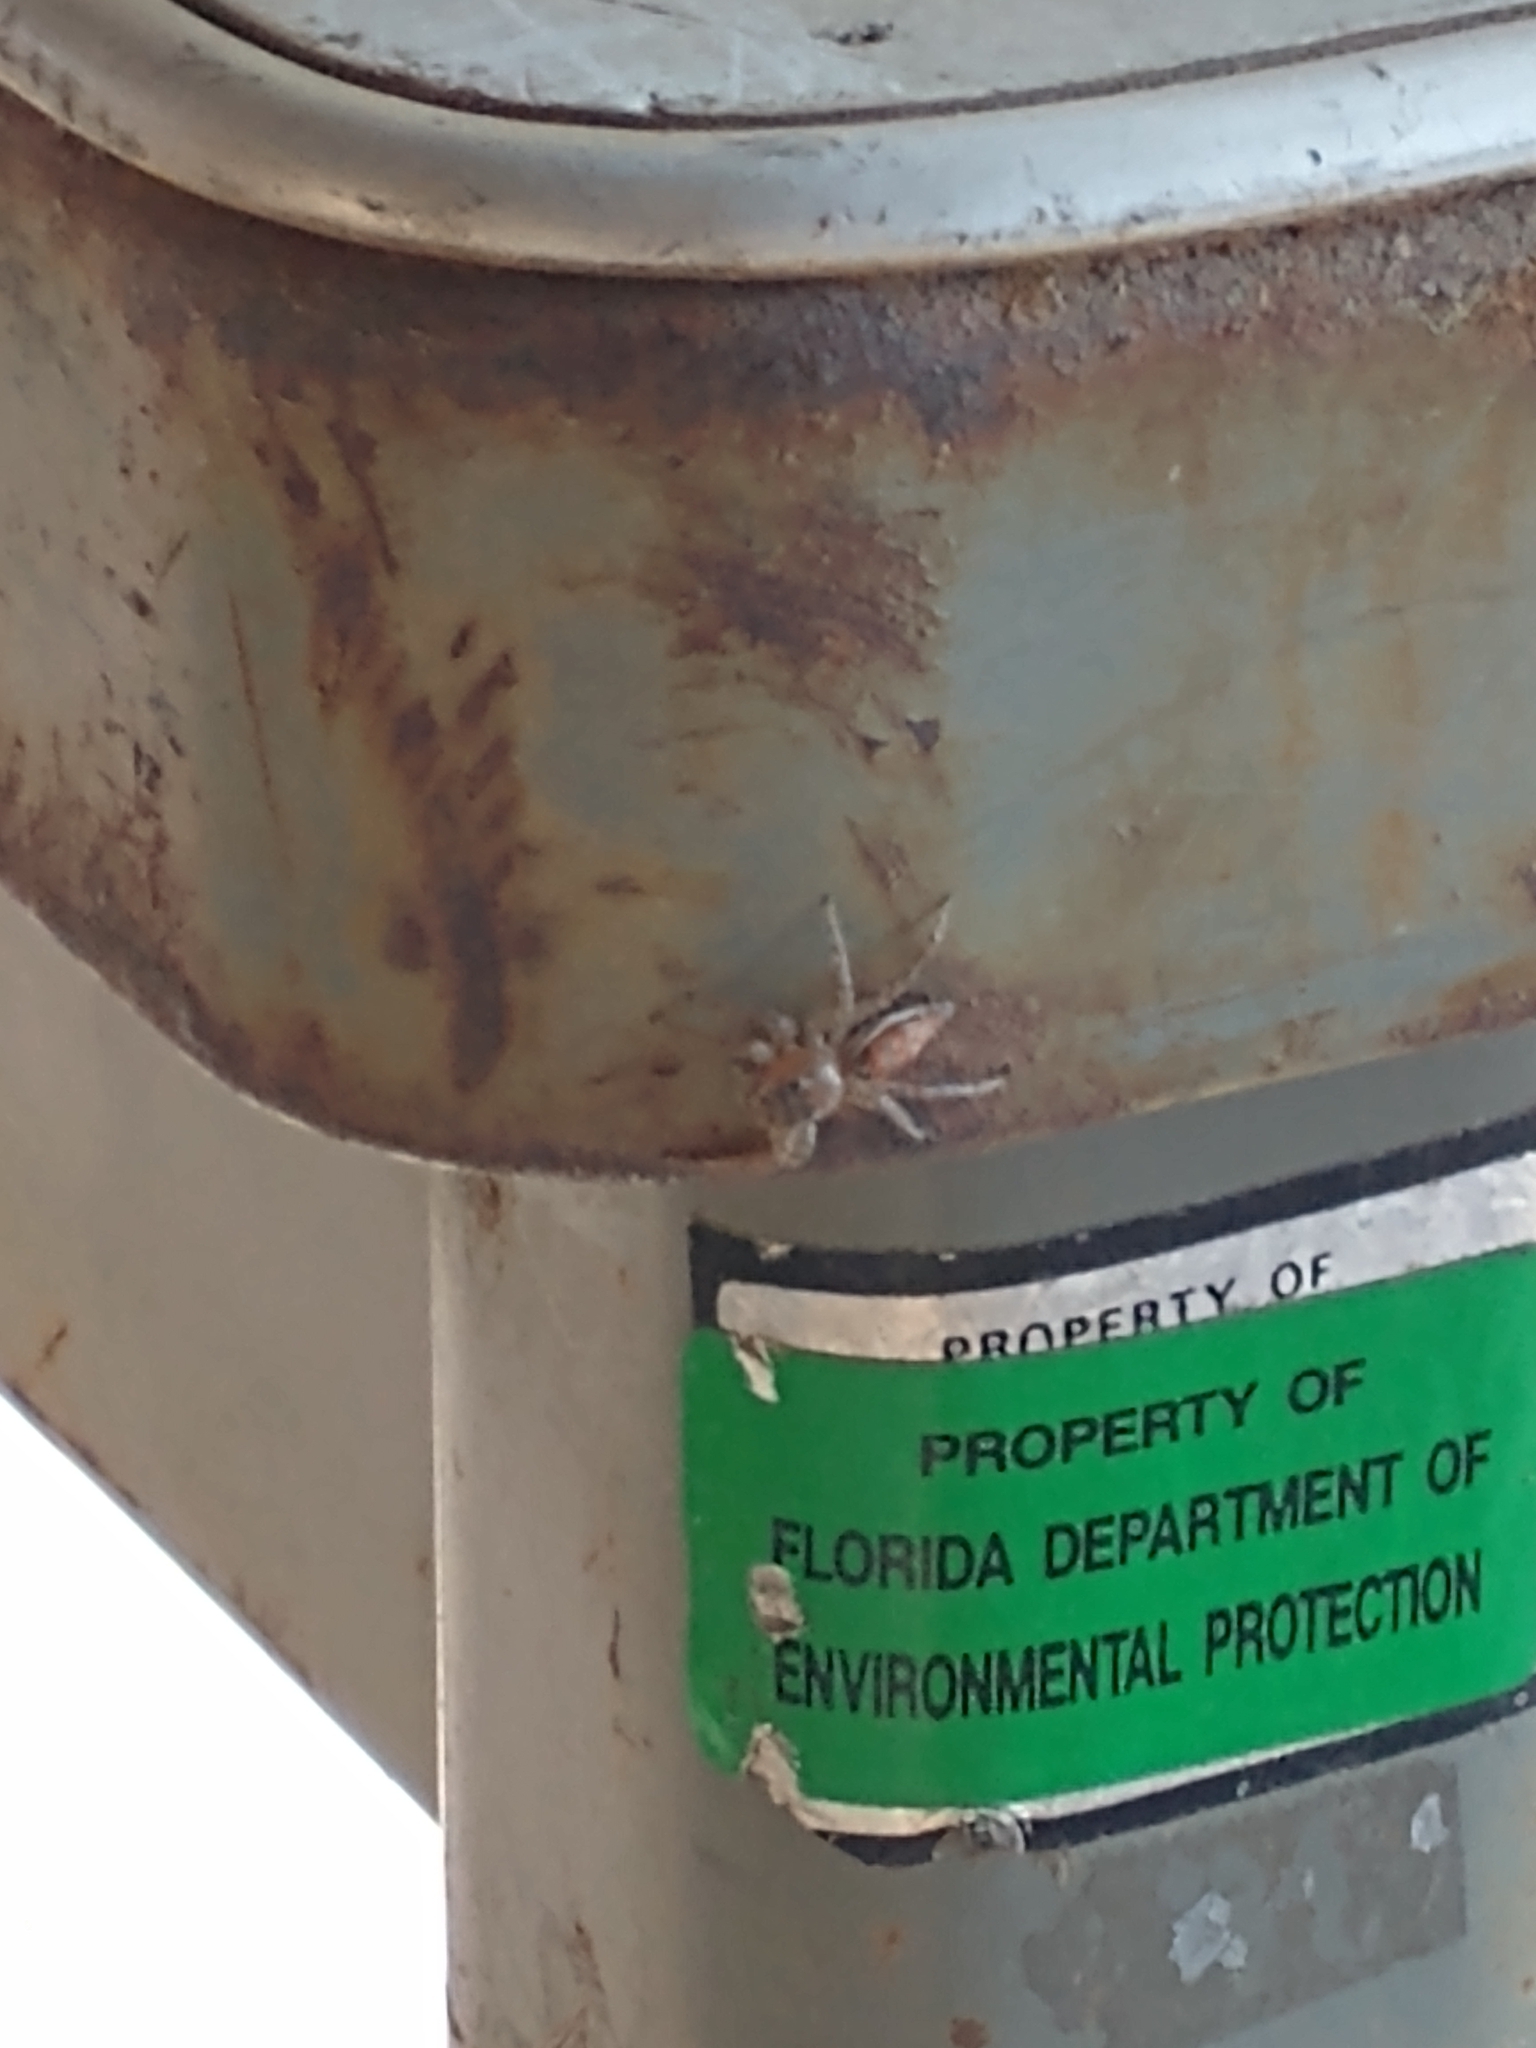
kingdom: Animalia
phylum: Arthropoda
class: Arachnida
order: Araneae
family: Salticidae
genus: Paramaevia
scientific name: Paramaevia michelsoni
